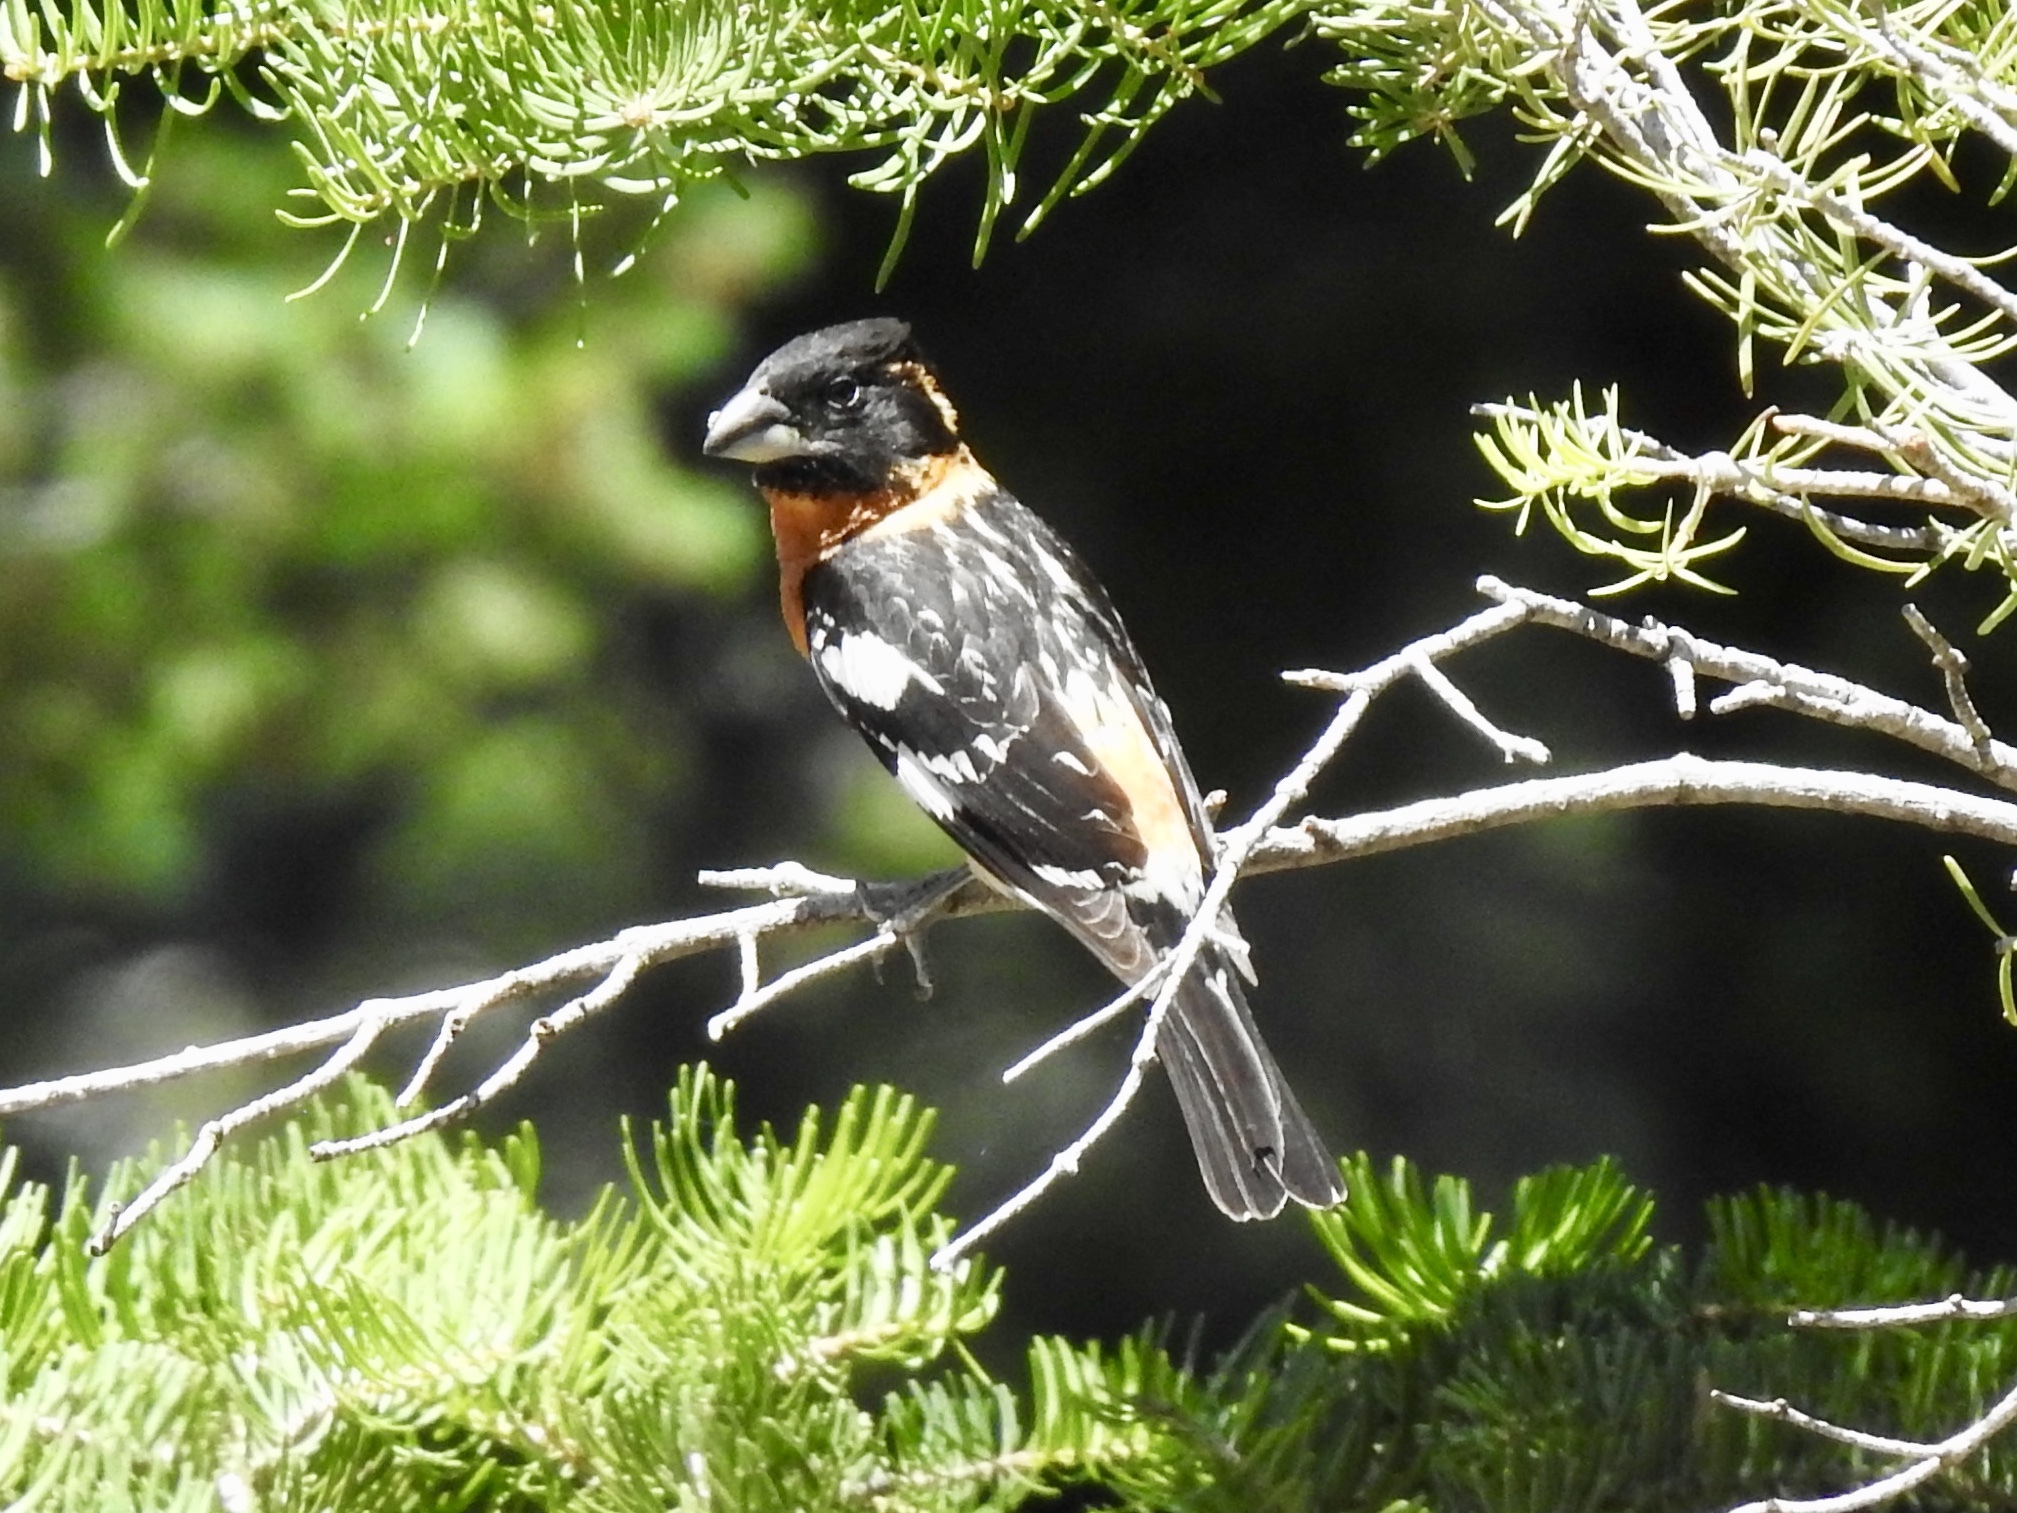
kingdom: Animalia
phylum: Chordata
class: Aves
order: Passeriformes
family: Cardinalidae
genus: Pheucticus
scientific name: Pheucticus melanocephalus
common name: Black-headed grosbeak
